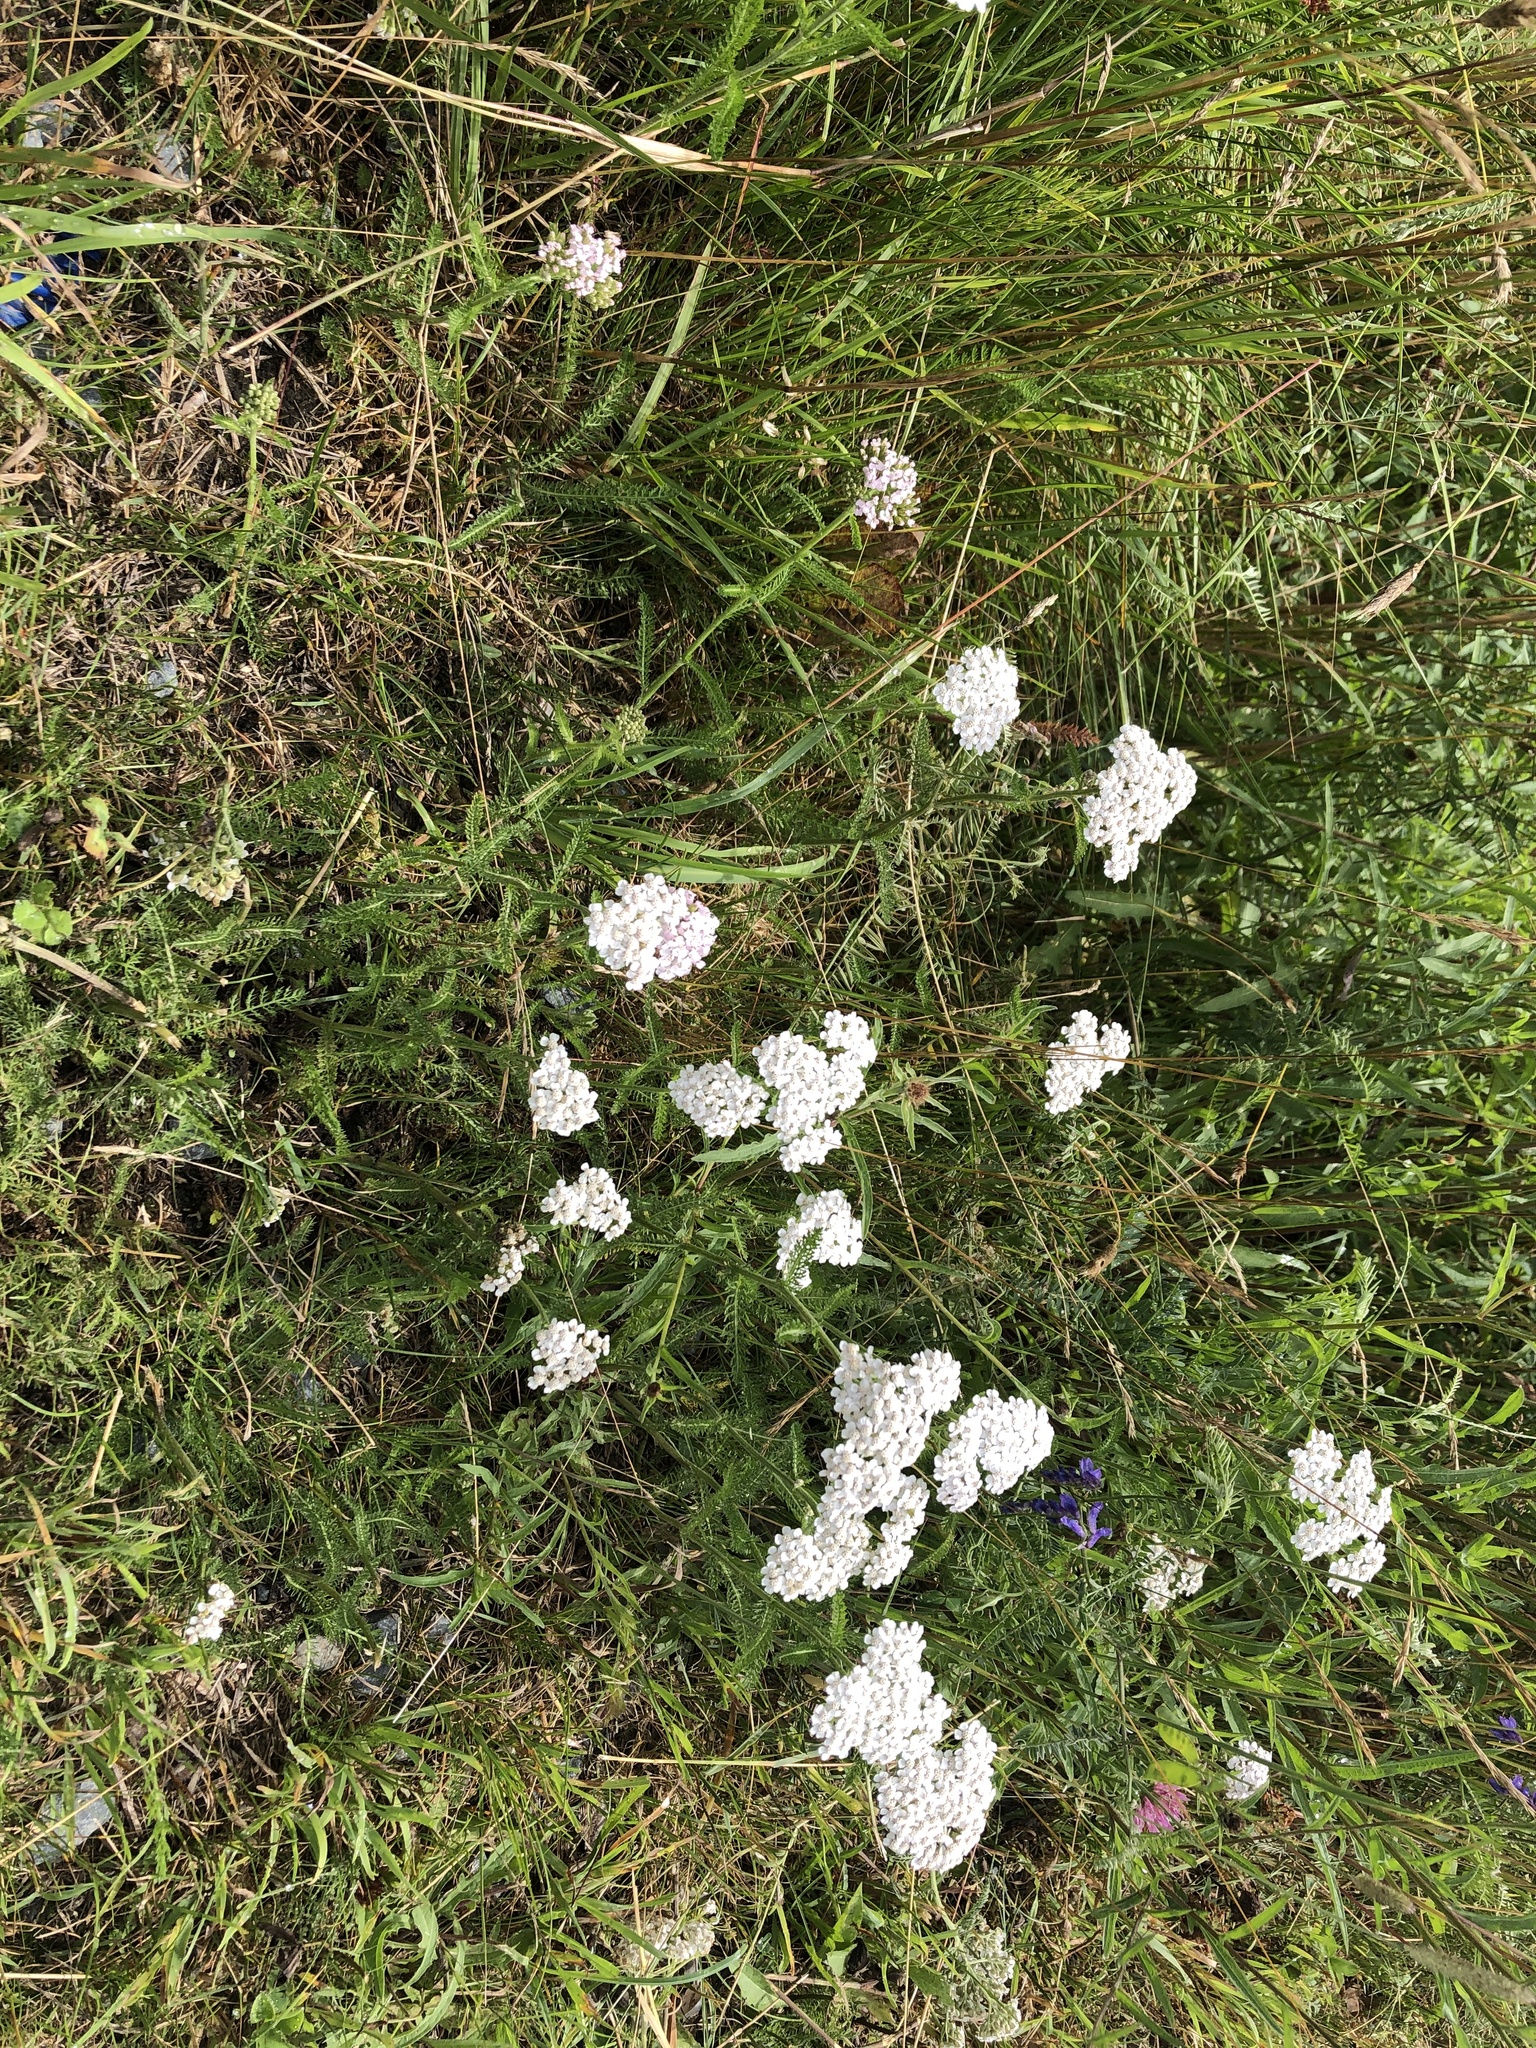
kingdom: Plantae
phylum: Tracheophyta
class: Magnoliopsida
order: Asterales
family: Asteraceae
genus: Achillea
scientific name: Achillea millefolium
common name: Yarrow
